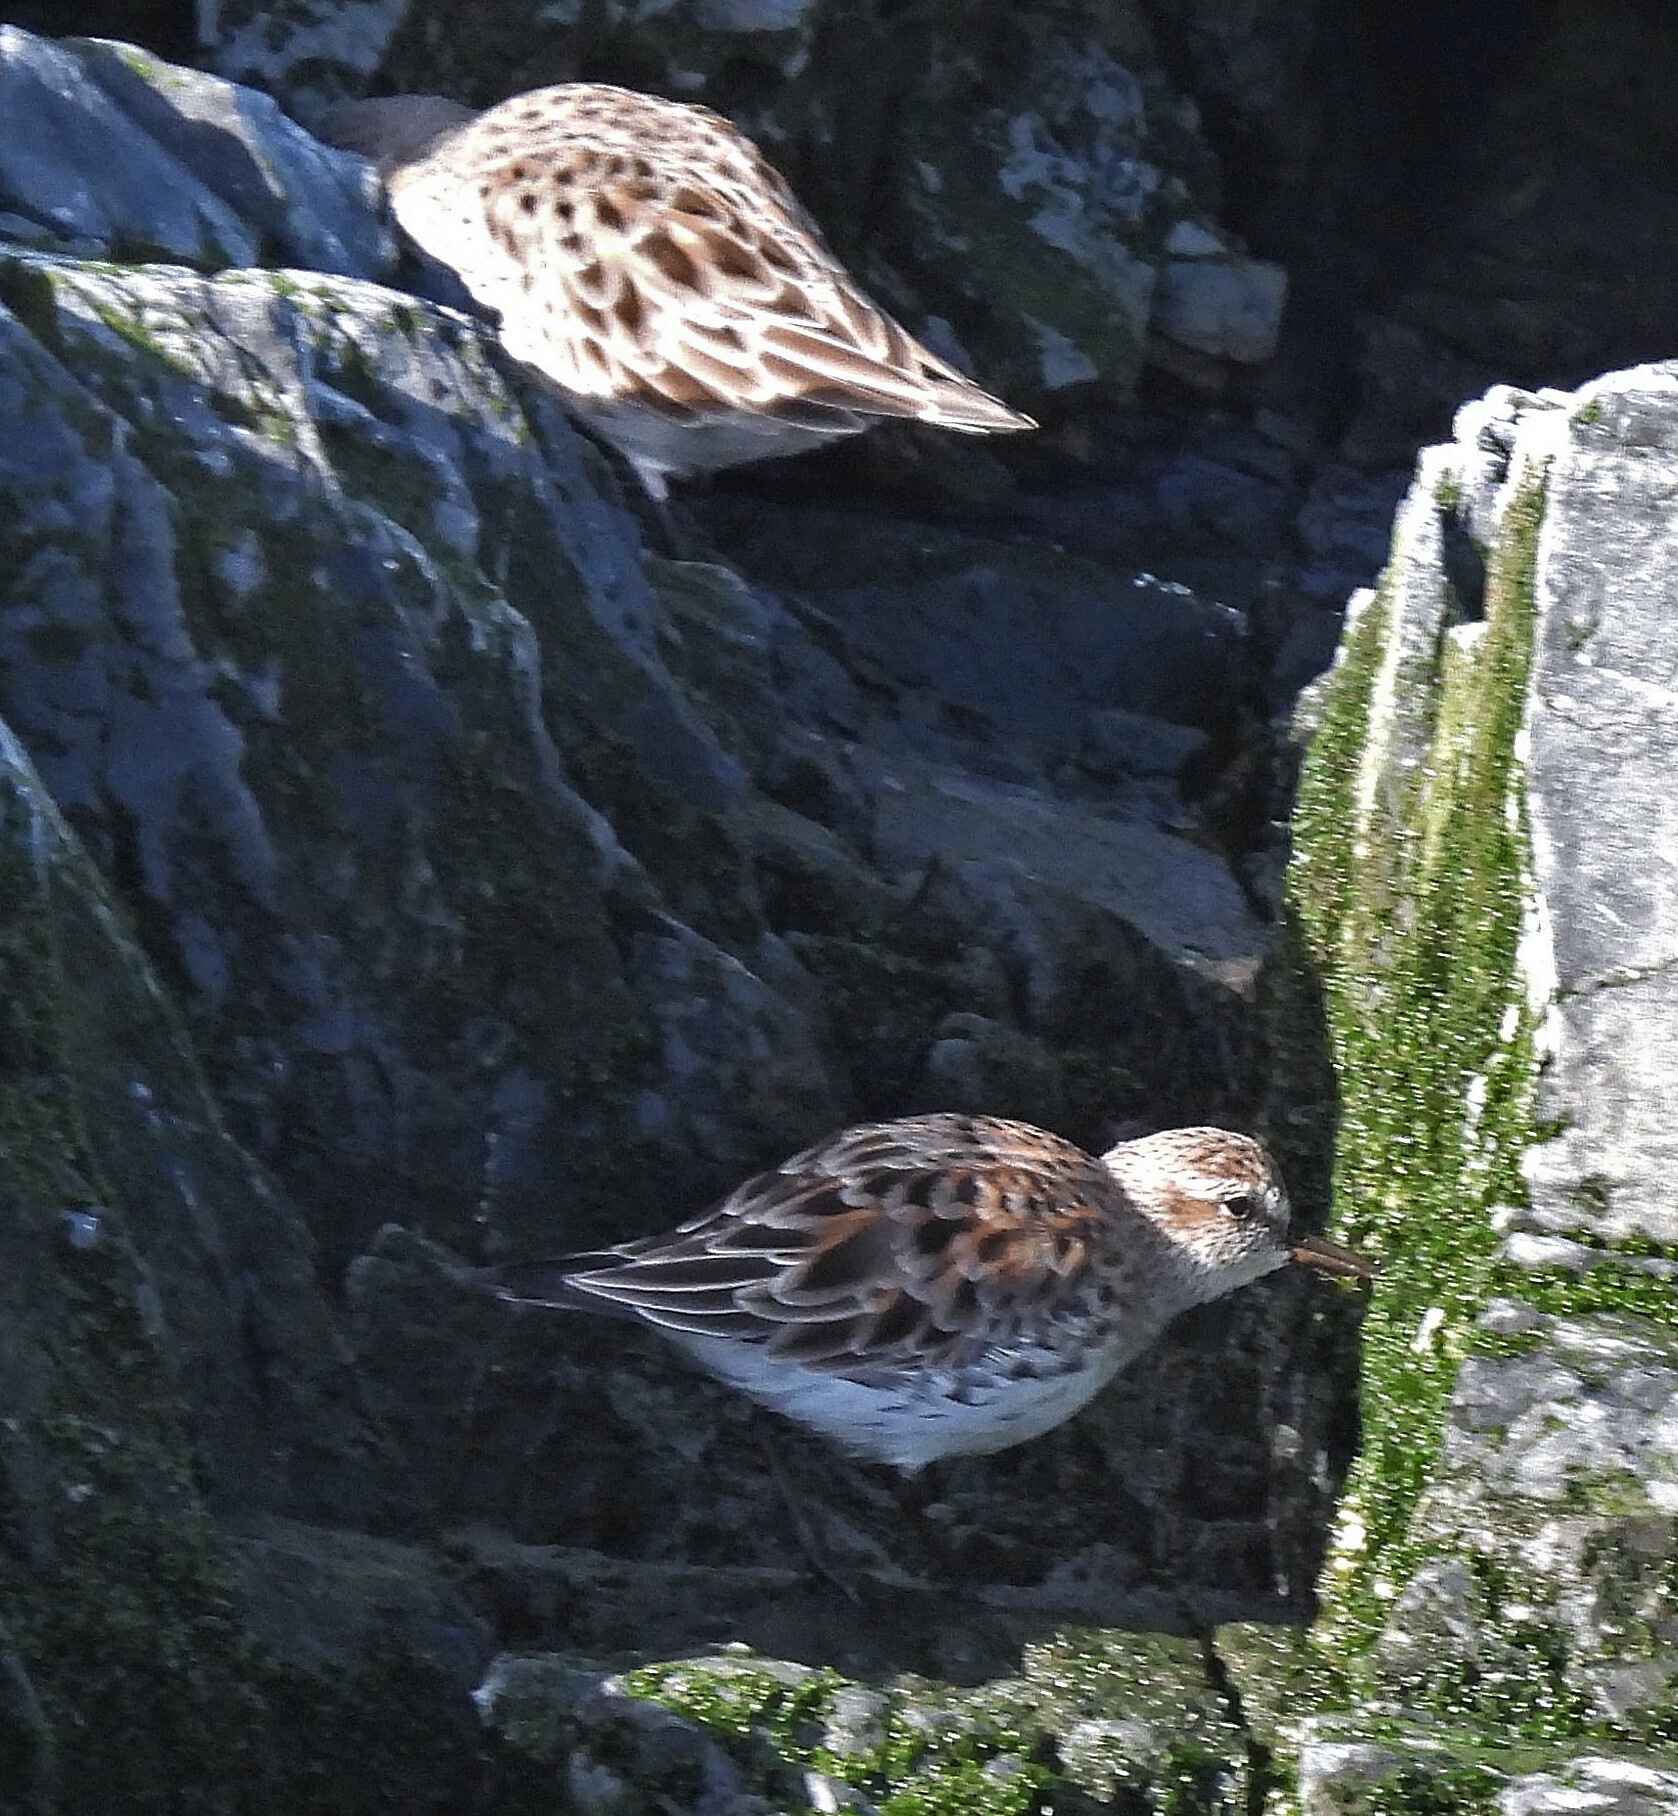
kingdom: Animalia
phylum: Chordata
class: Aves
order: Charadriiformes
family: Scolopacidae
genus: Calidris
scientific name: Calidris fuscicollis
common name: White-rumped sandpiper
